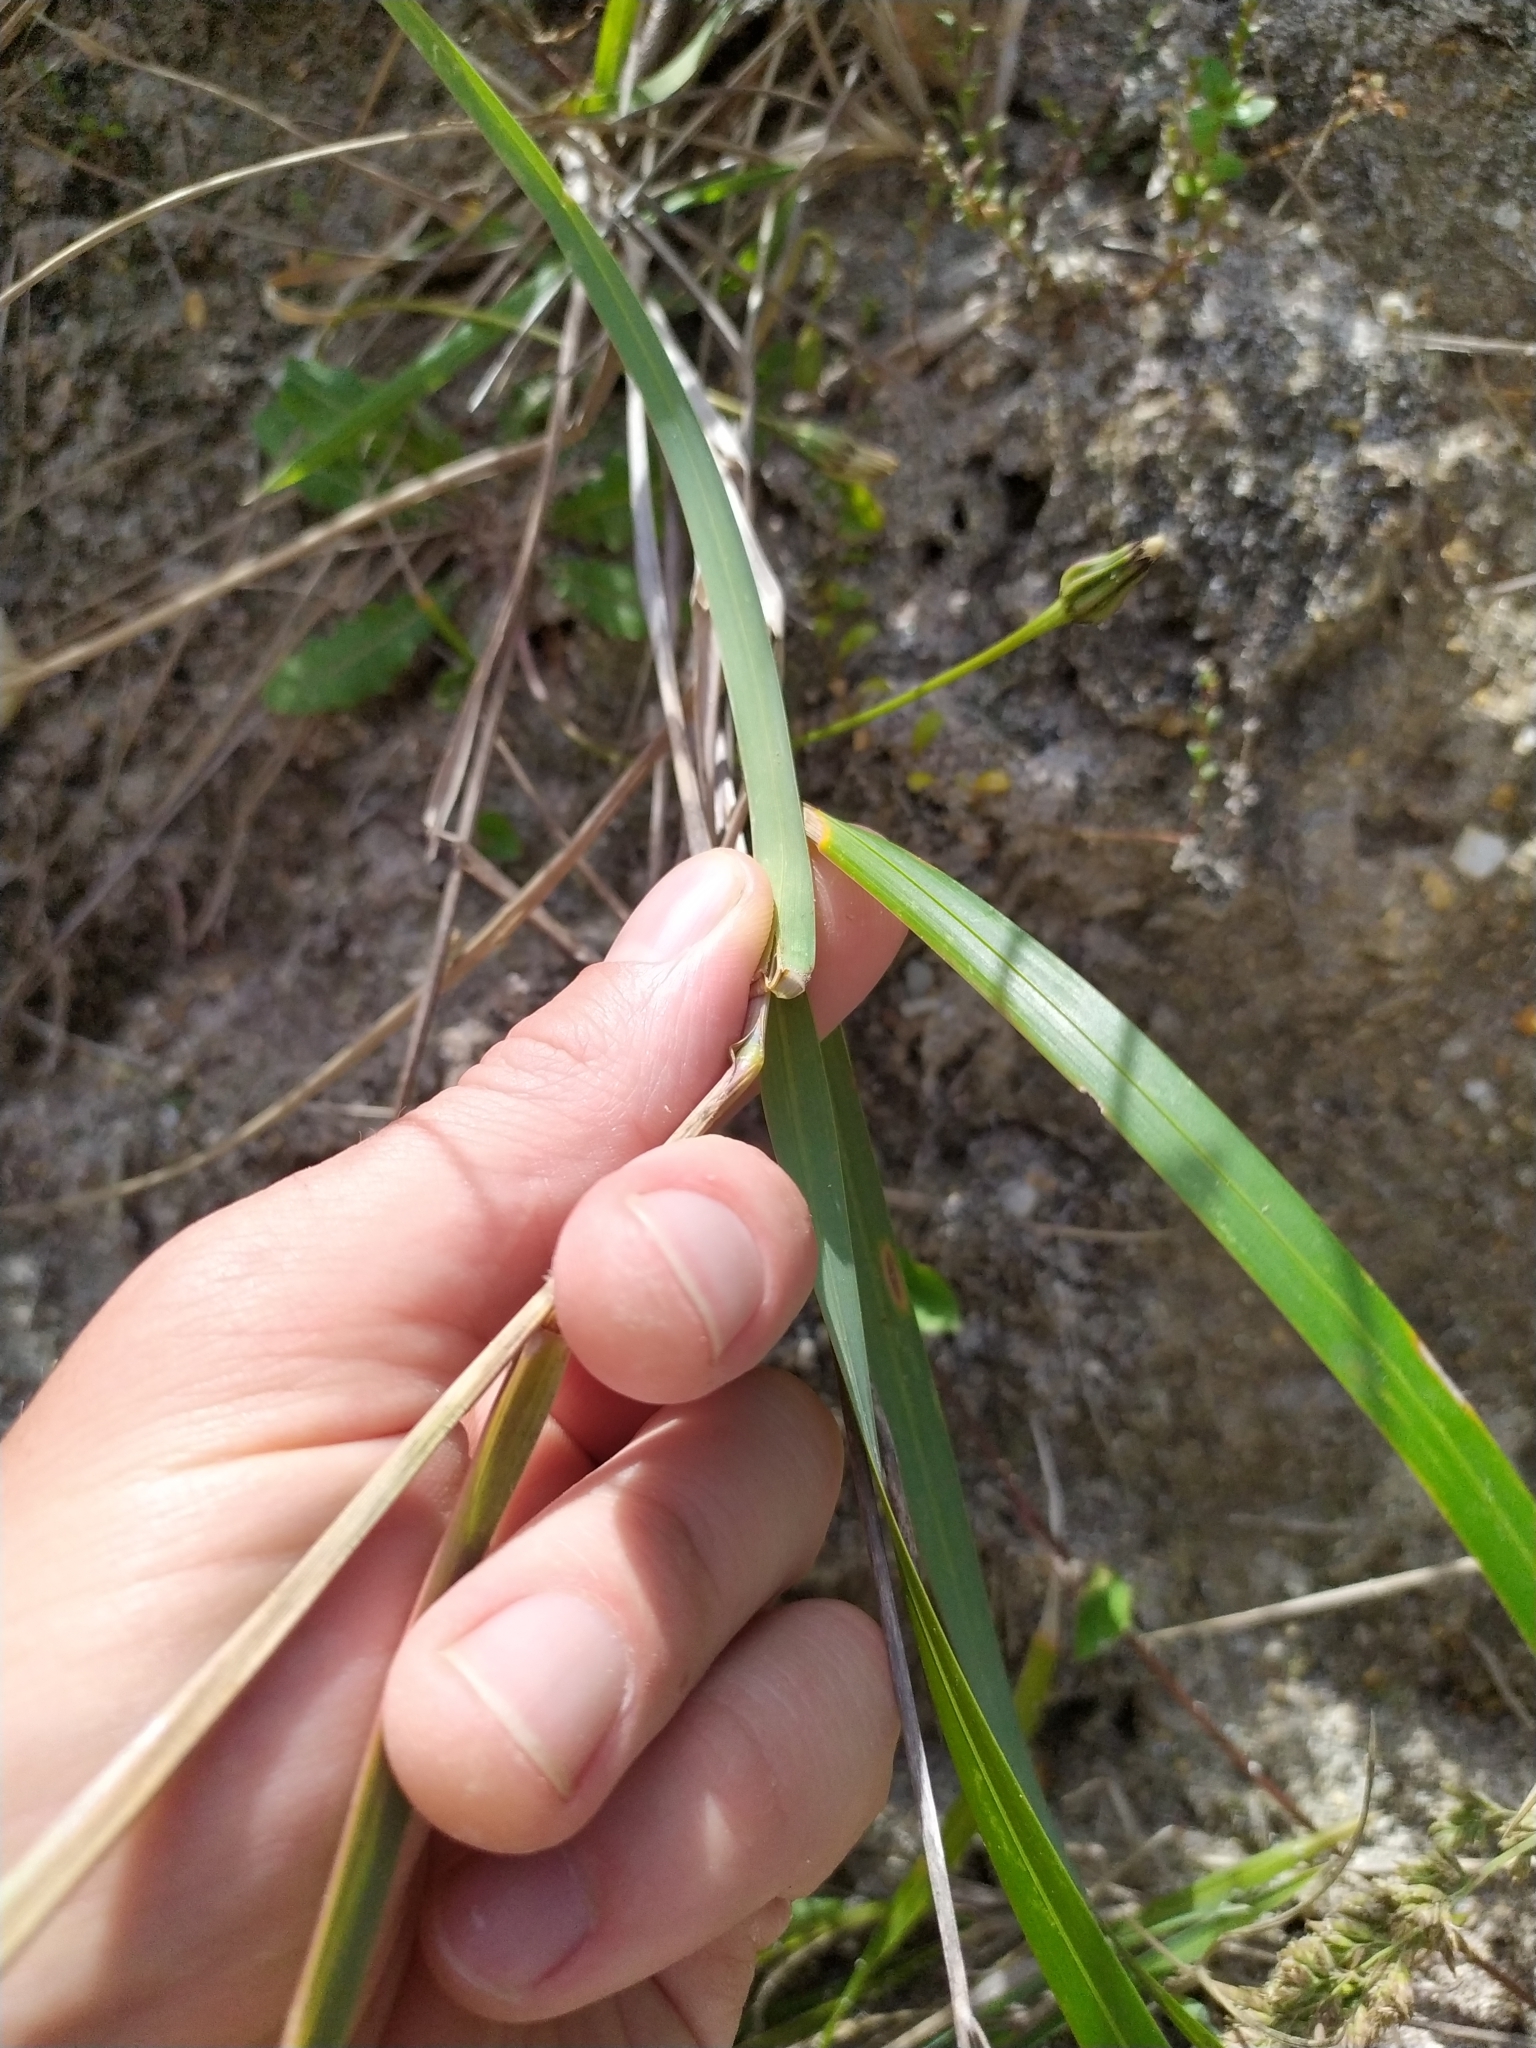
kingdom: Plantae
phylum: Tracheophyta
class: Liliopsida
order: Poales
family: Poaceae
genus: Poa
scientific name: Poa anceps
